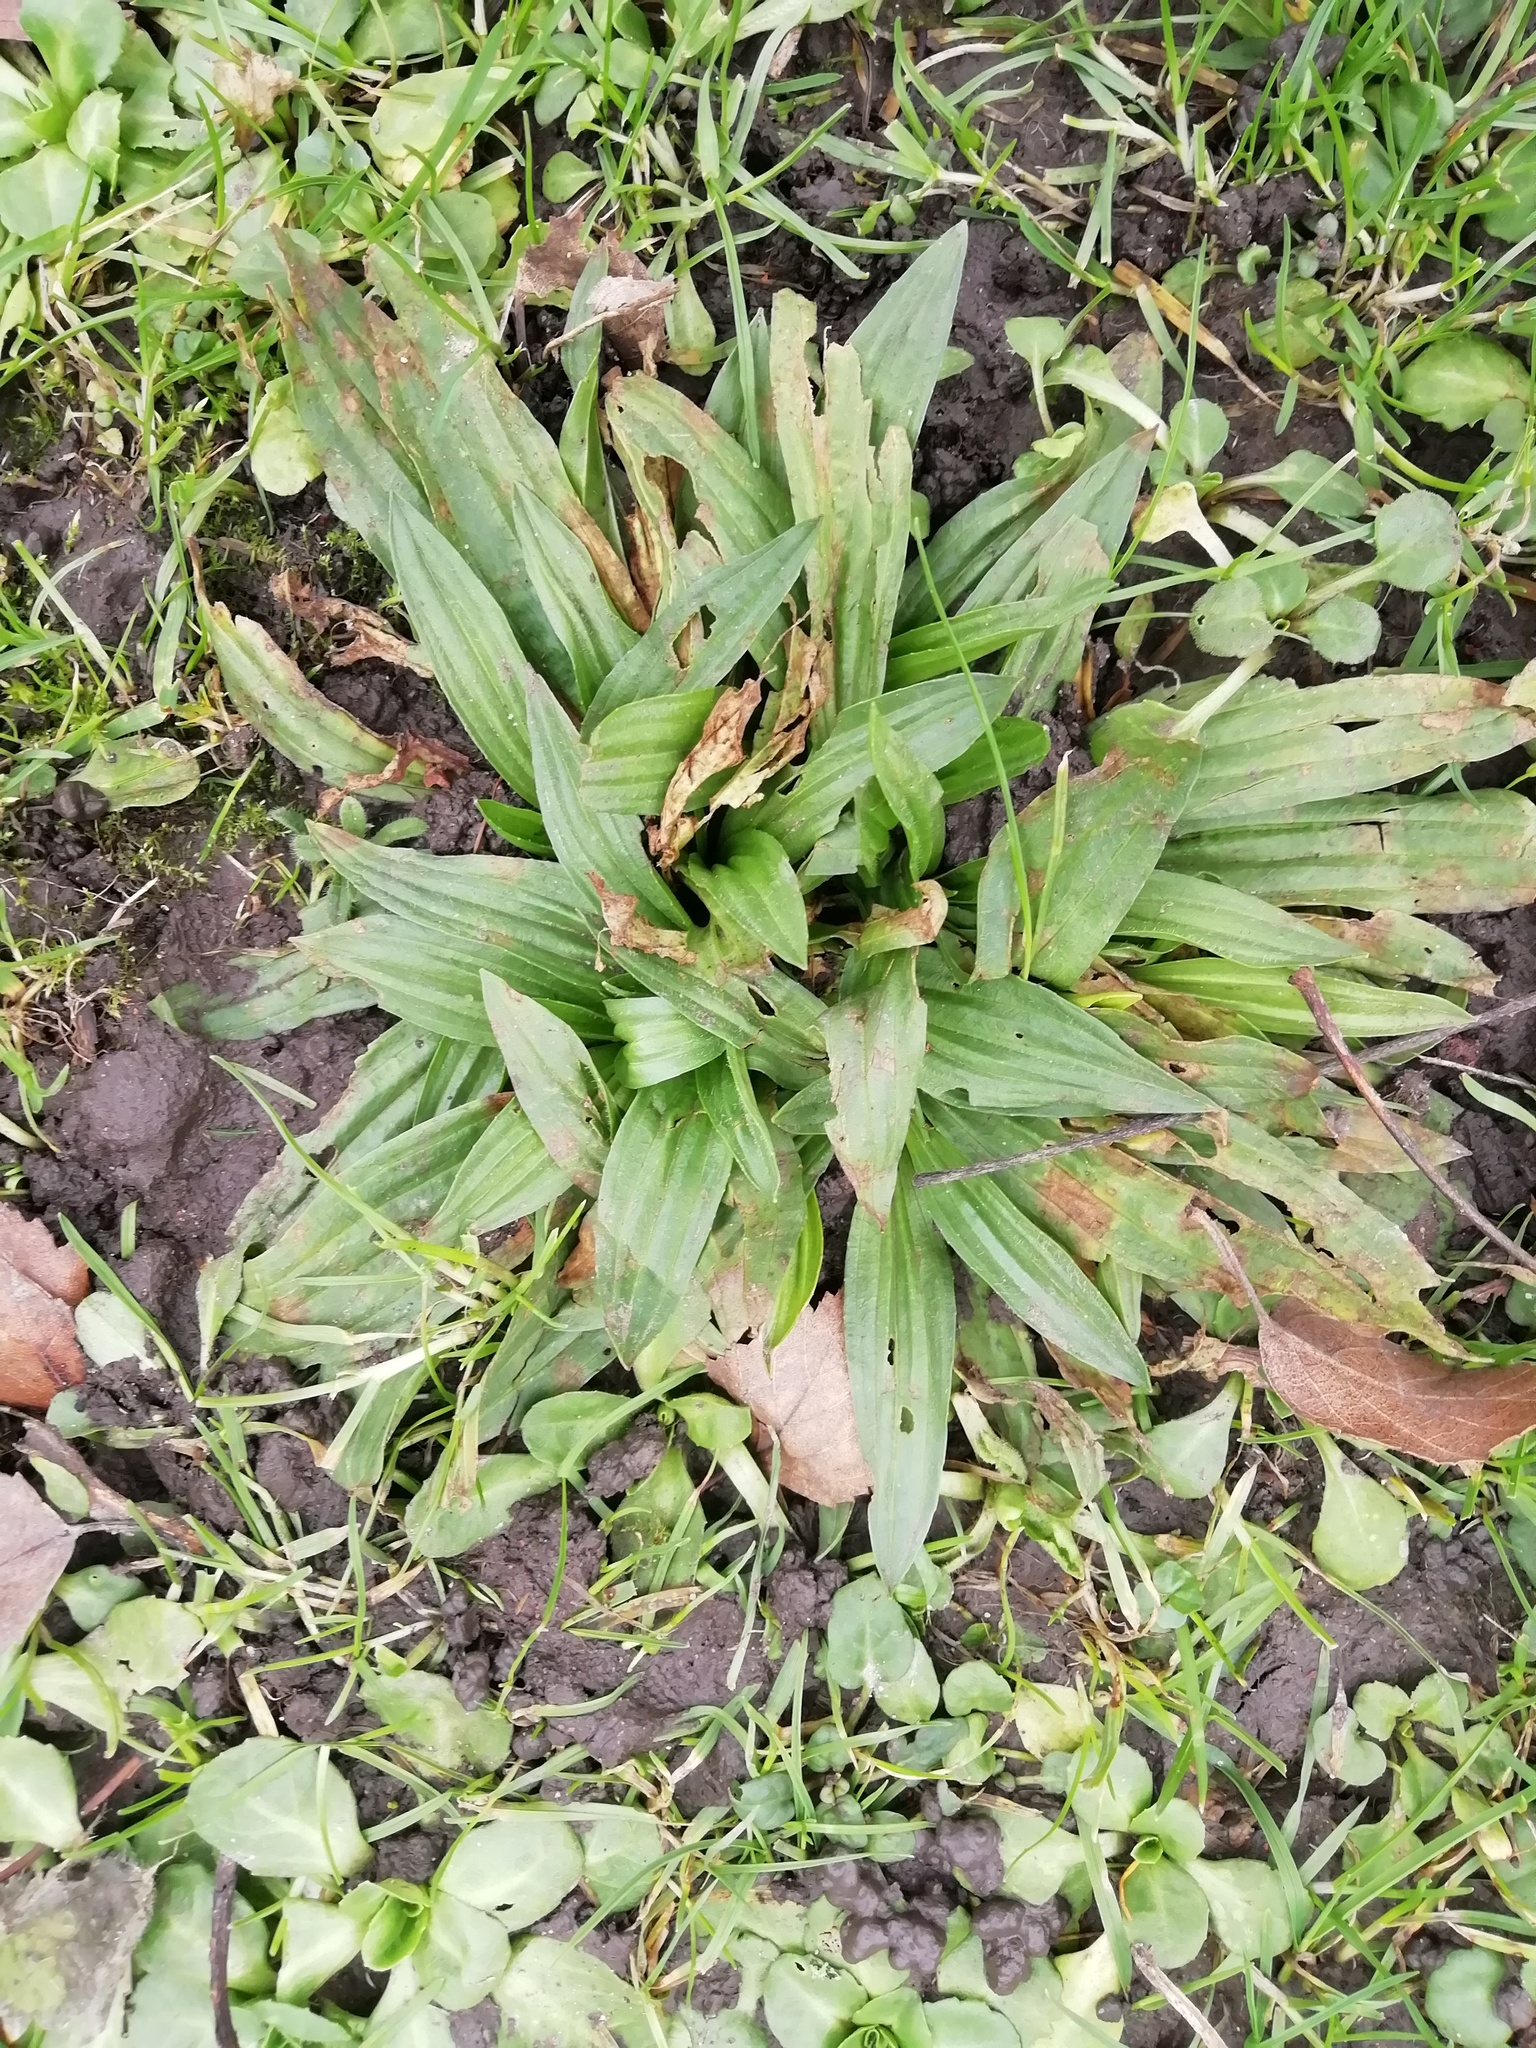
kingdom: Plantae
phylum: Tracheophyta
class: Magnoliopsida
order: Lamiales
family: Plantaginaceae
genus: Plantago
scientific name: Plantago lanceolata
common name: Ribwort plantain
